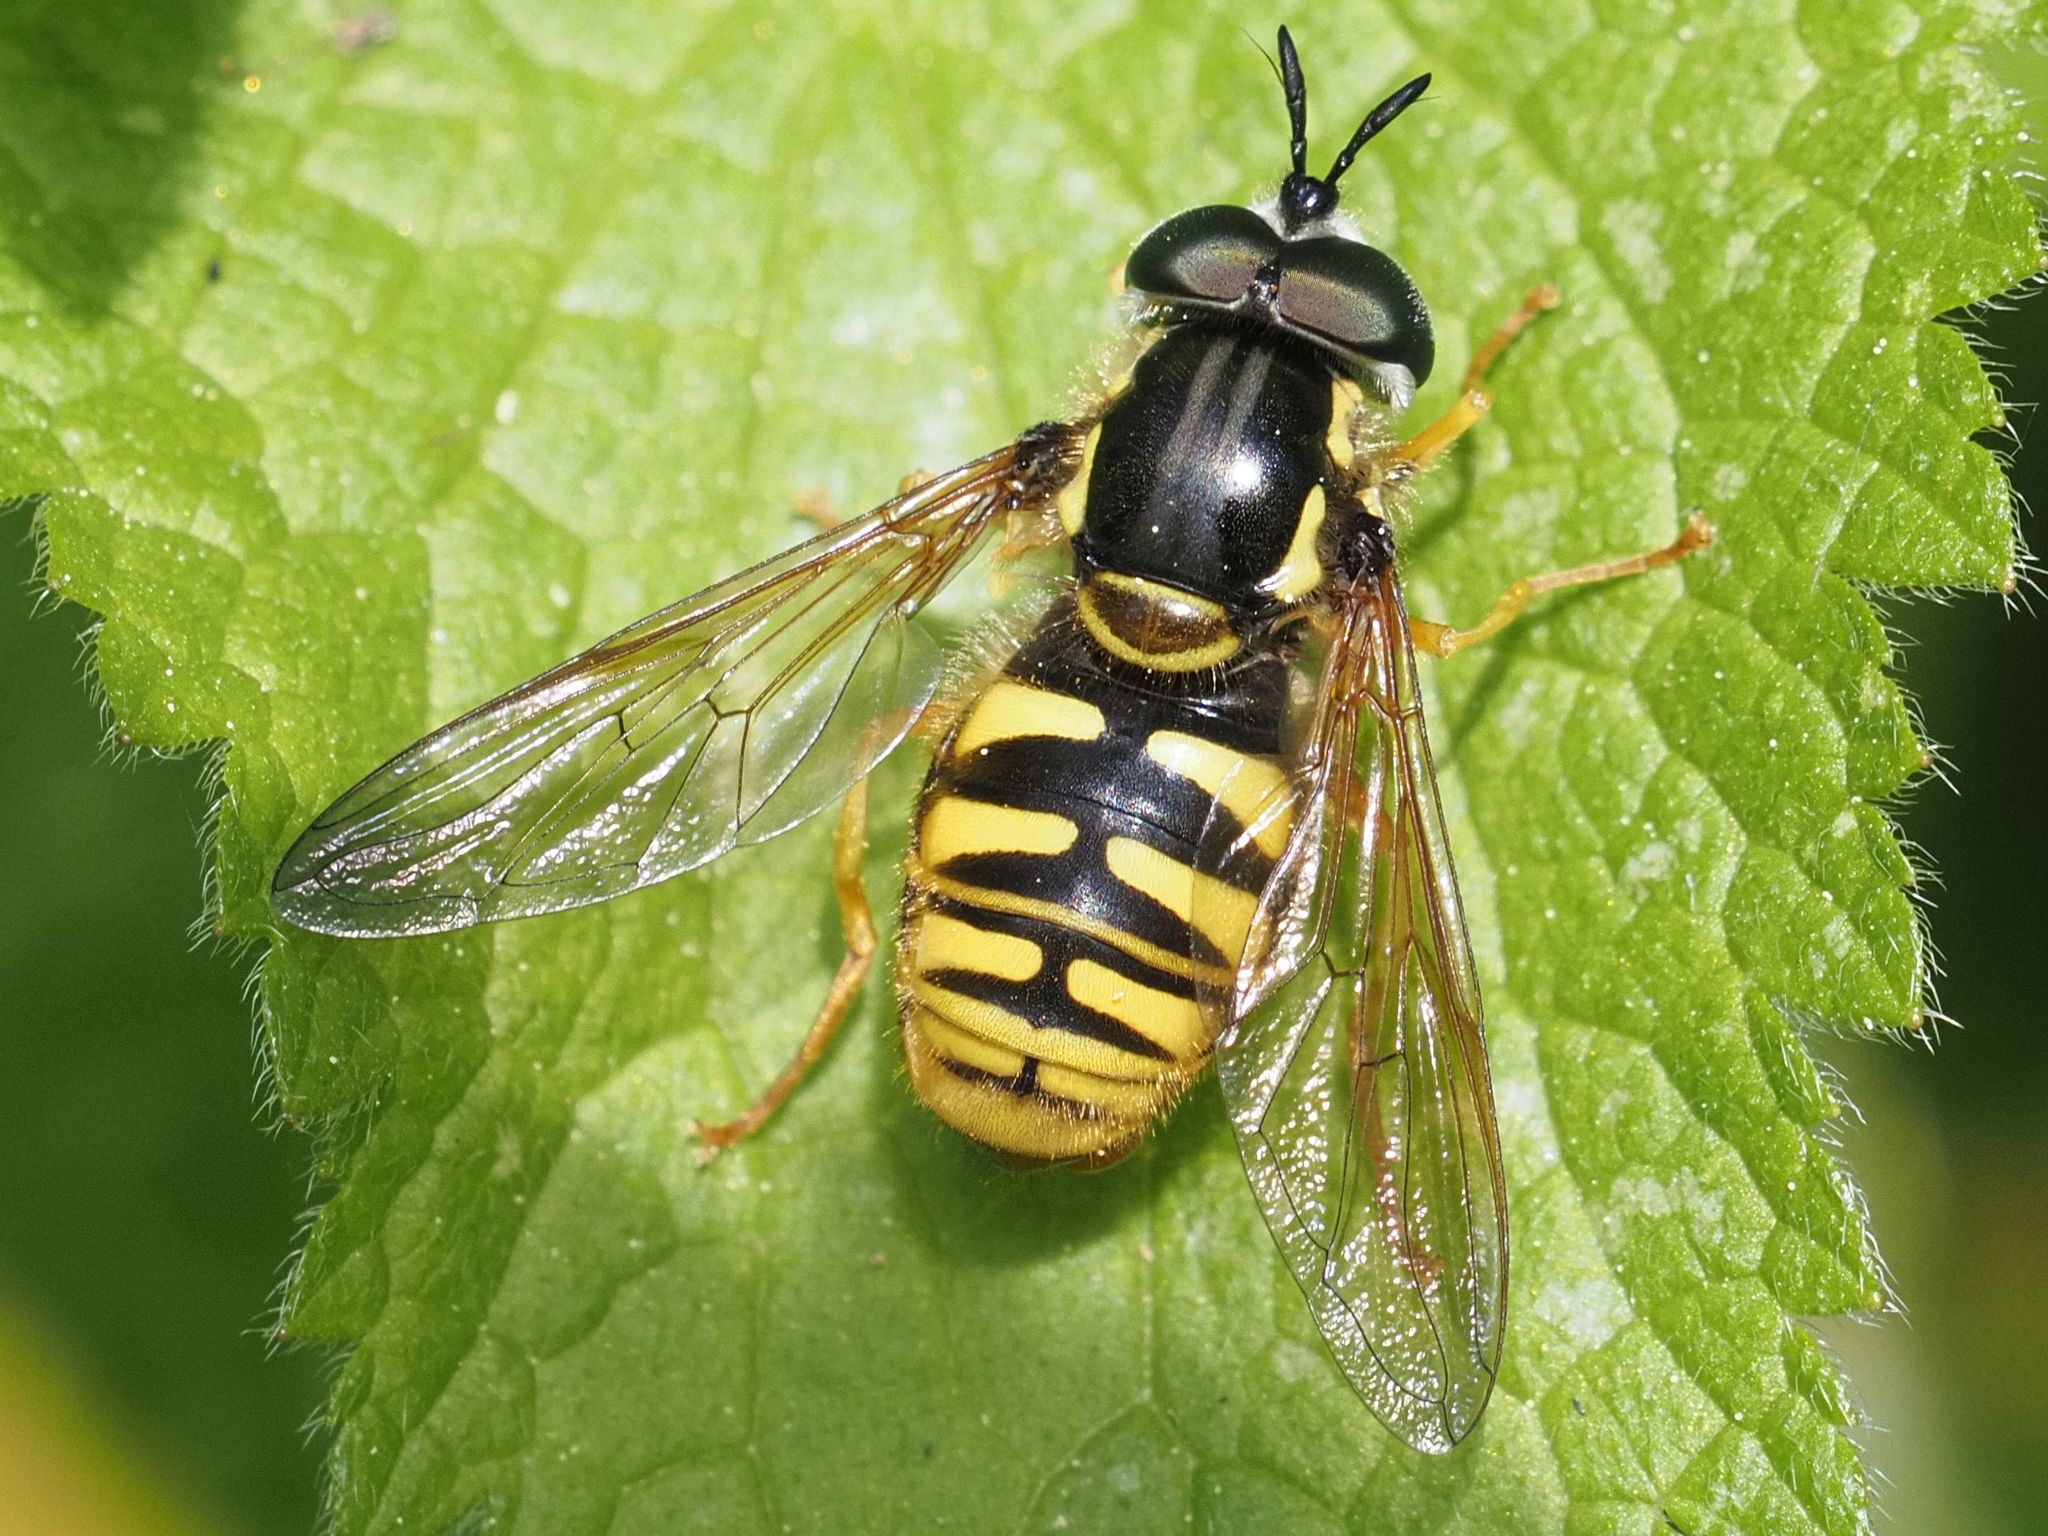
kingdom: Animalia
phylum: Arthropoda
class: Insecta
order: Diptera
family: Syrphidae
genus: Chrysotoxum
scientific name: Chrysotoxum cautum
